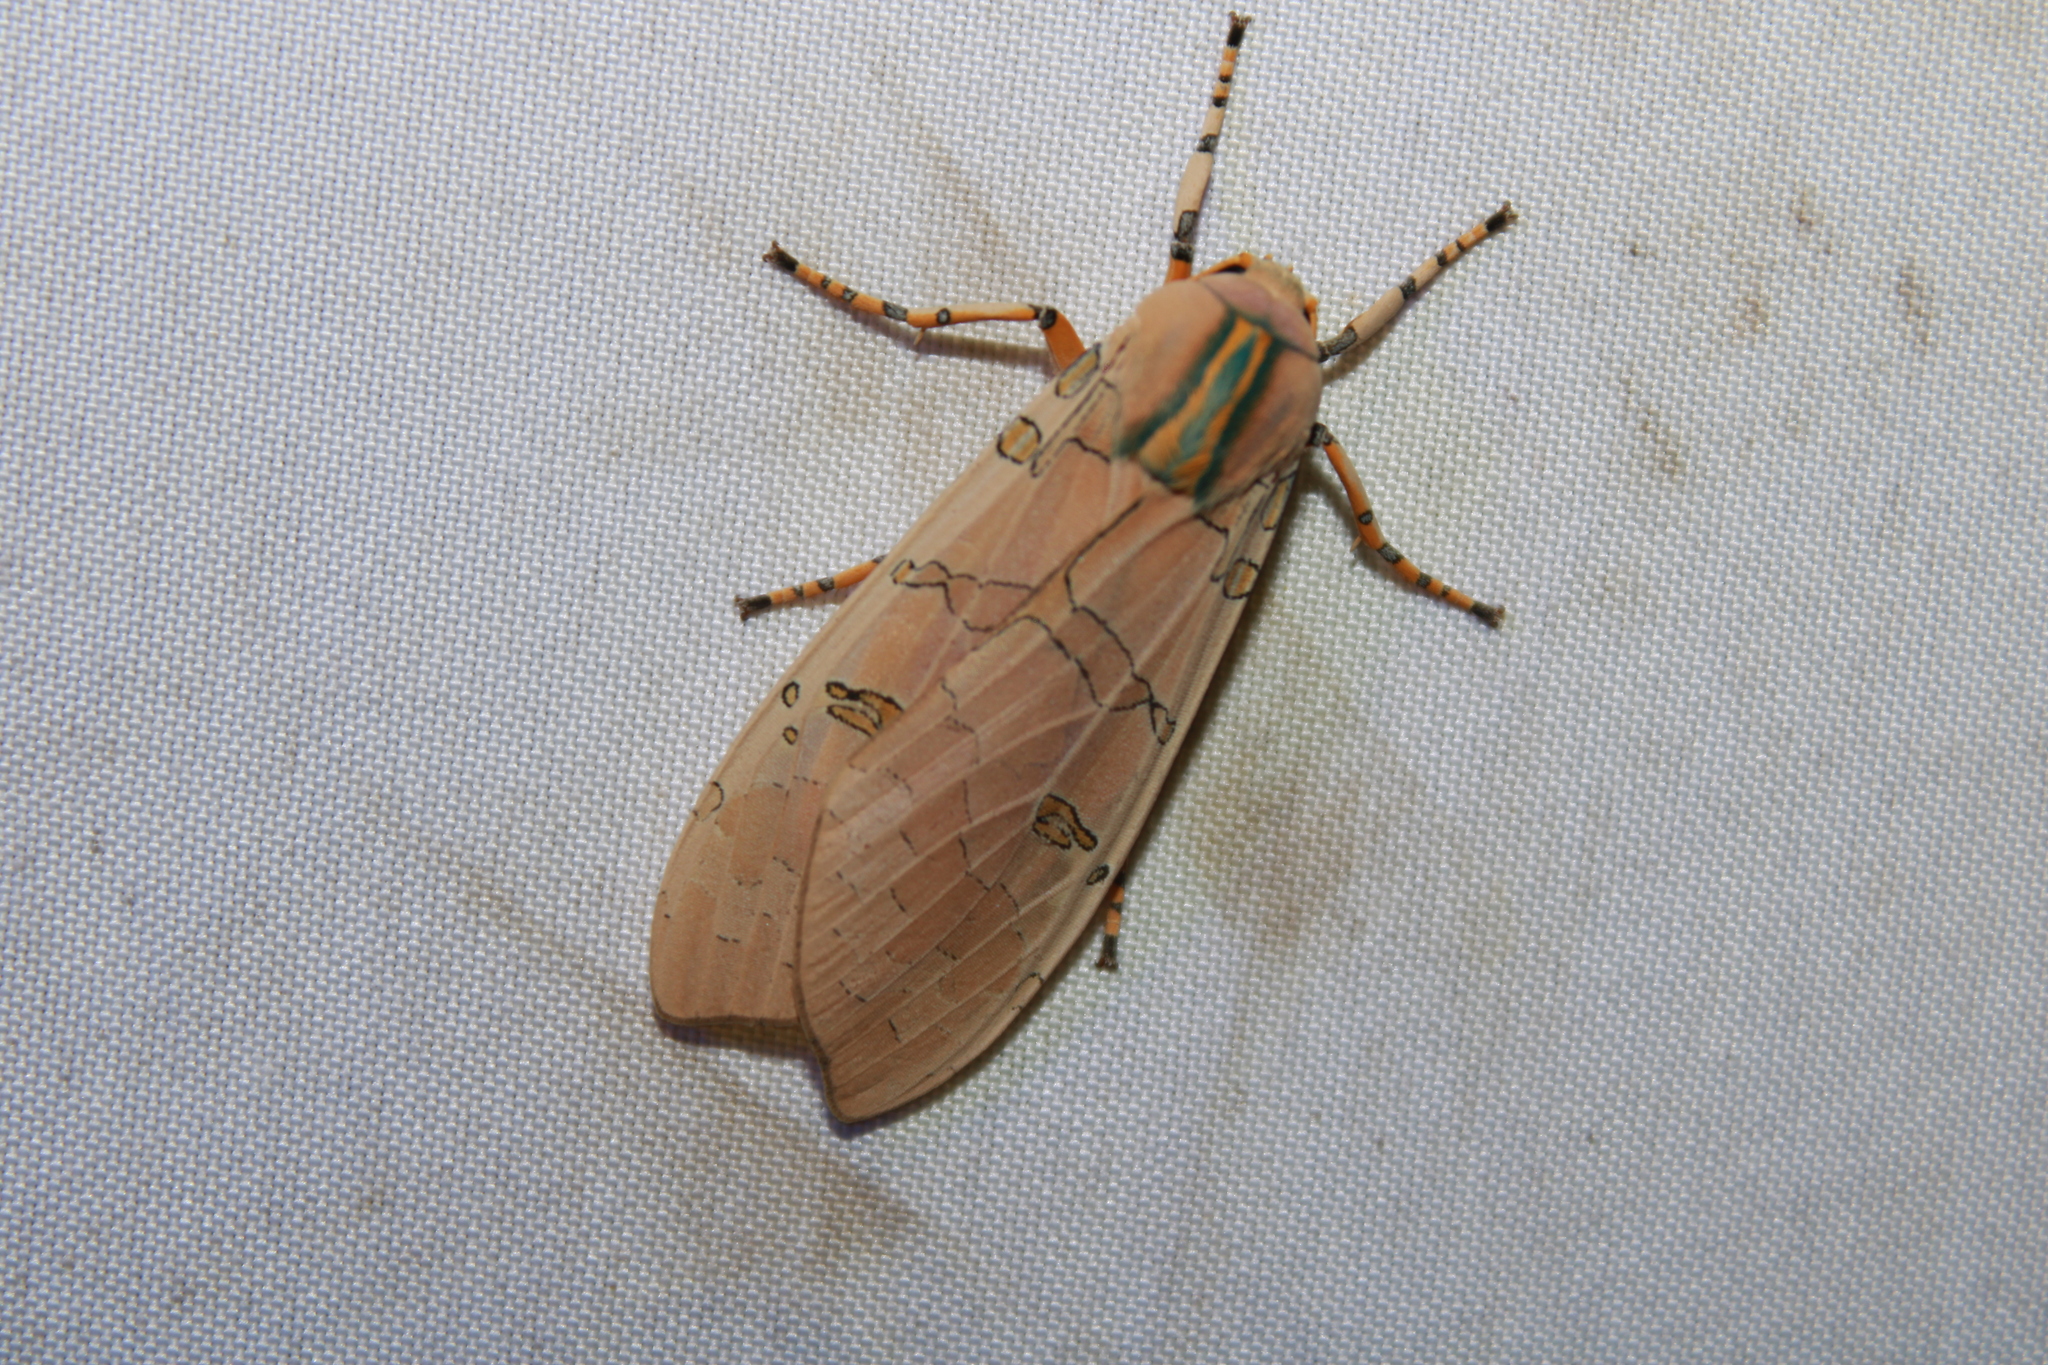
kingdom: Animalia
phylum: Arthropoda
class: Insecta
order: Lepidoptera
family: Erebidae
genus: Halysidota
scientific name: Halysidota cinctipes
